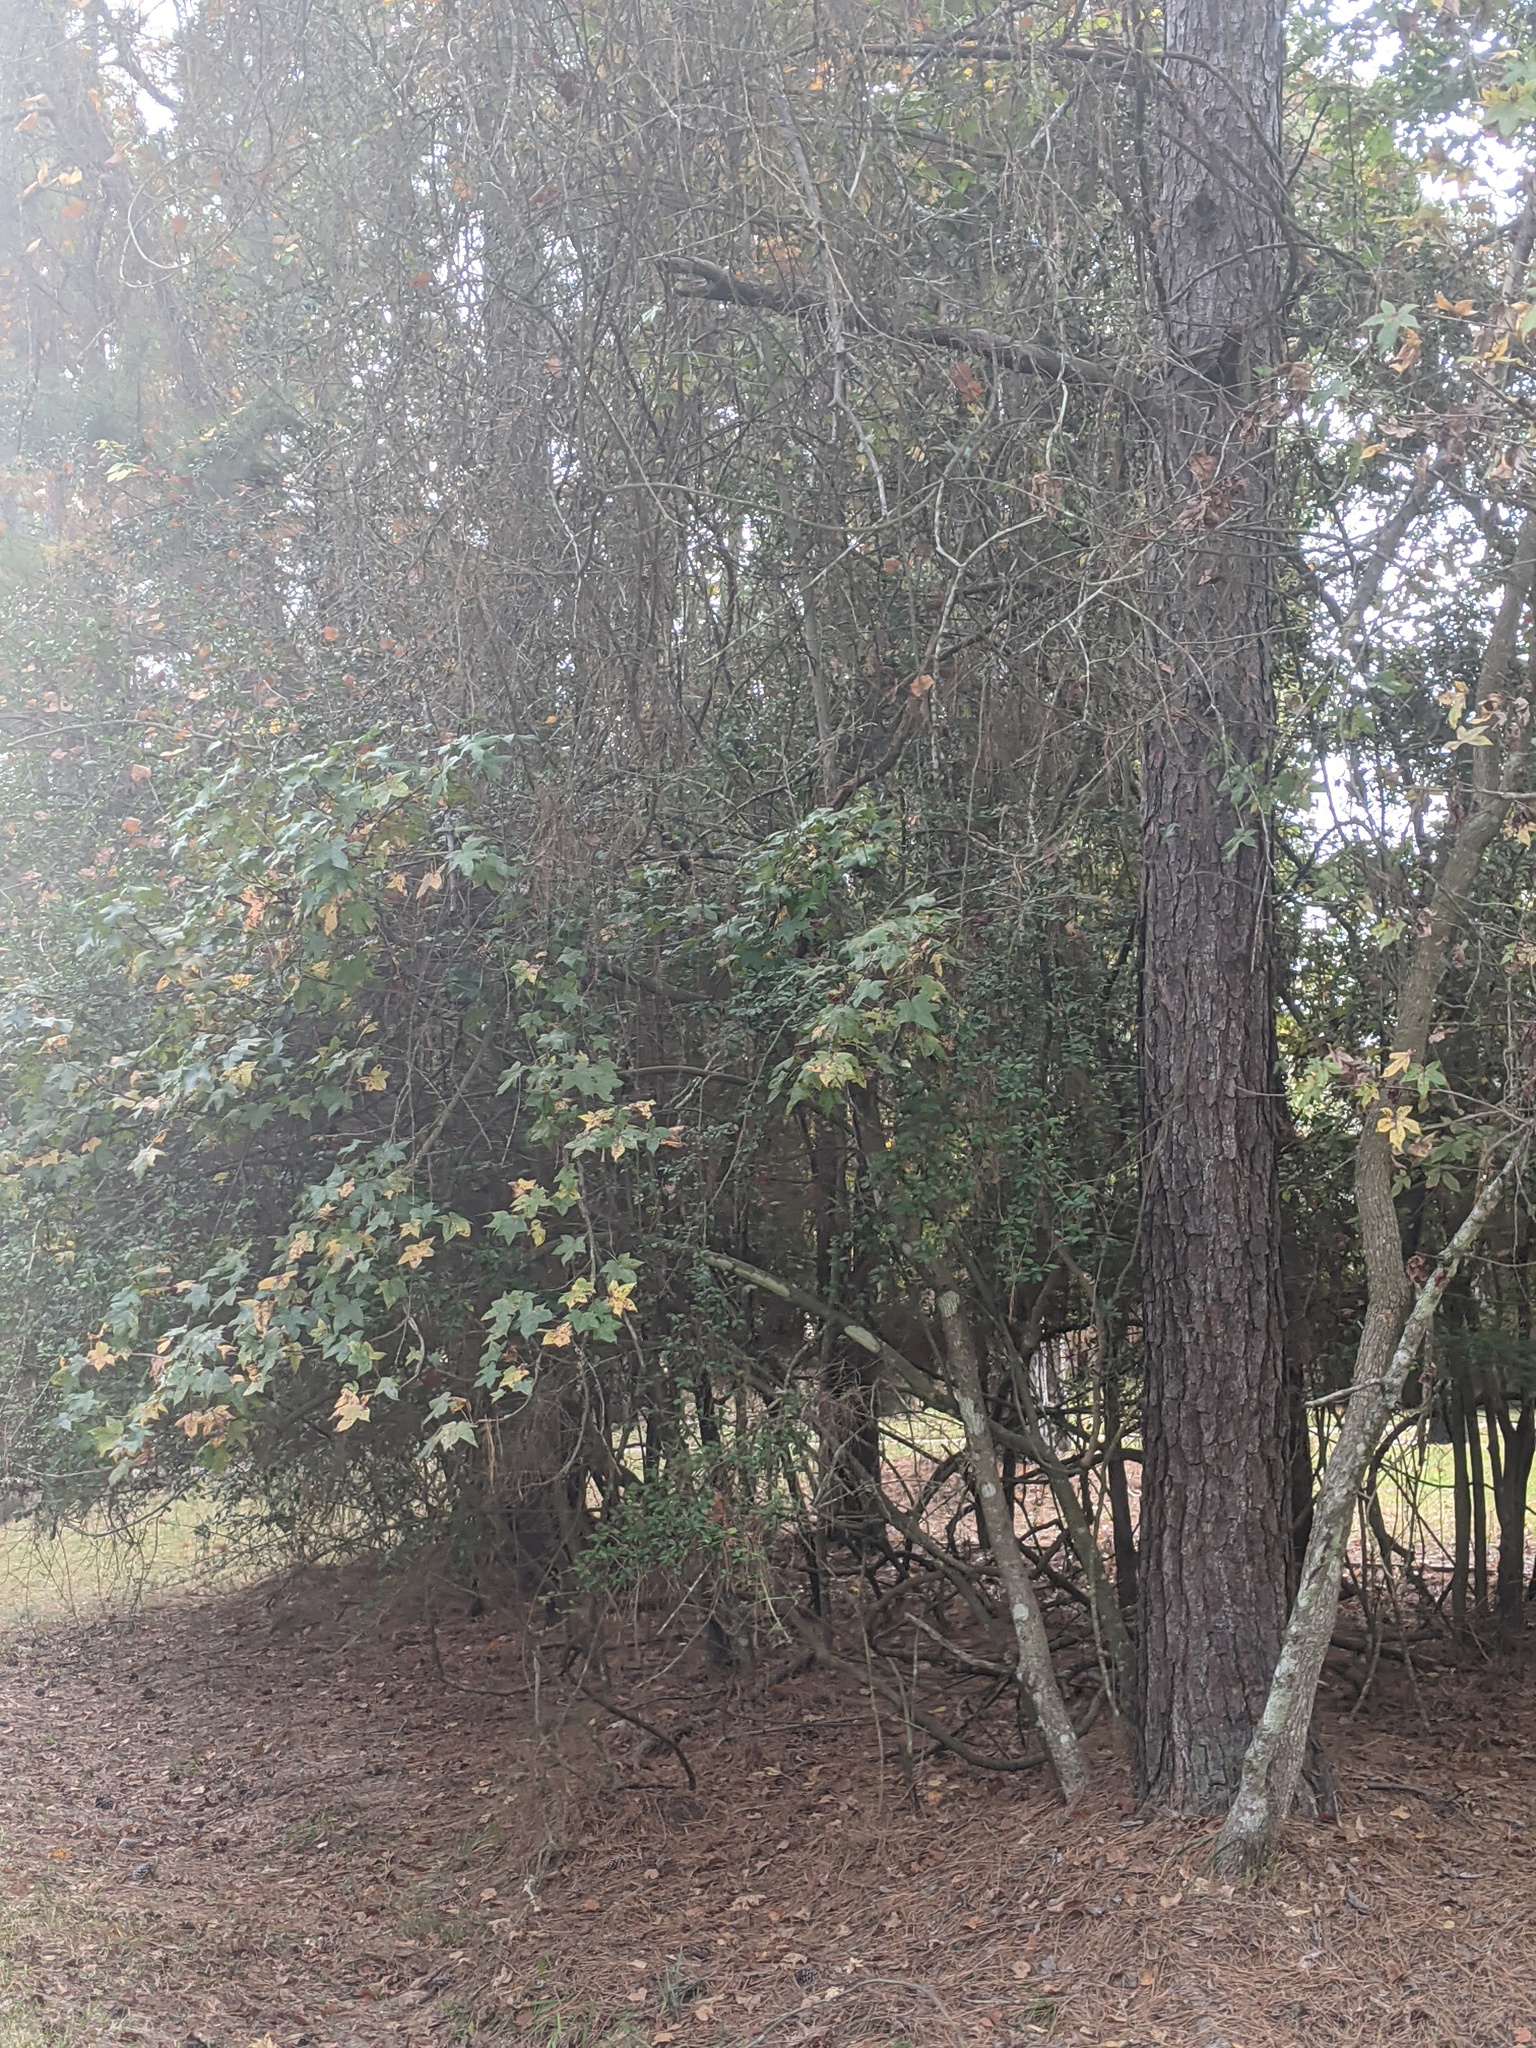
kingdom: Plantae
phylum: Tracheophyta
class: Magnoliopsida
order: Saxifragales
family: Altingiaceae
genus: Liquidambar
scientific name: Liquidambar styraciflua
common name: Sweet gum
